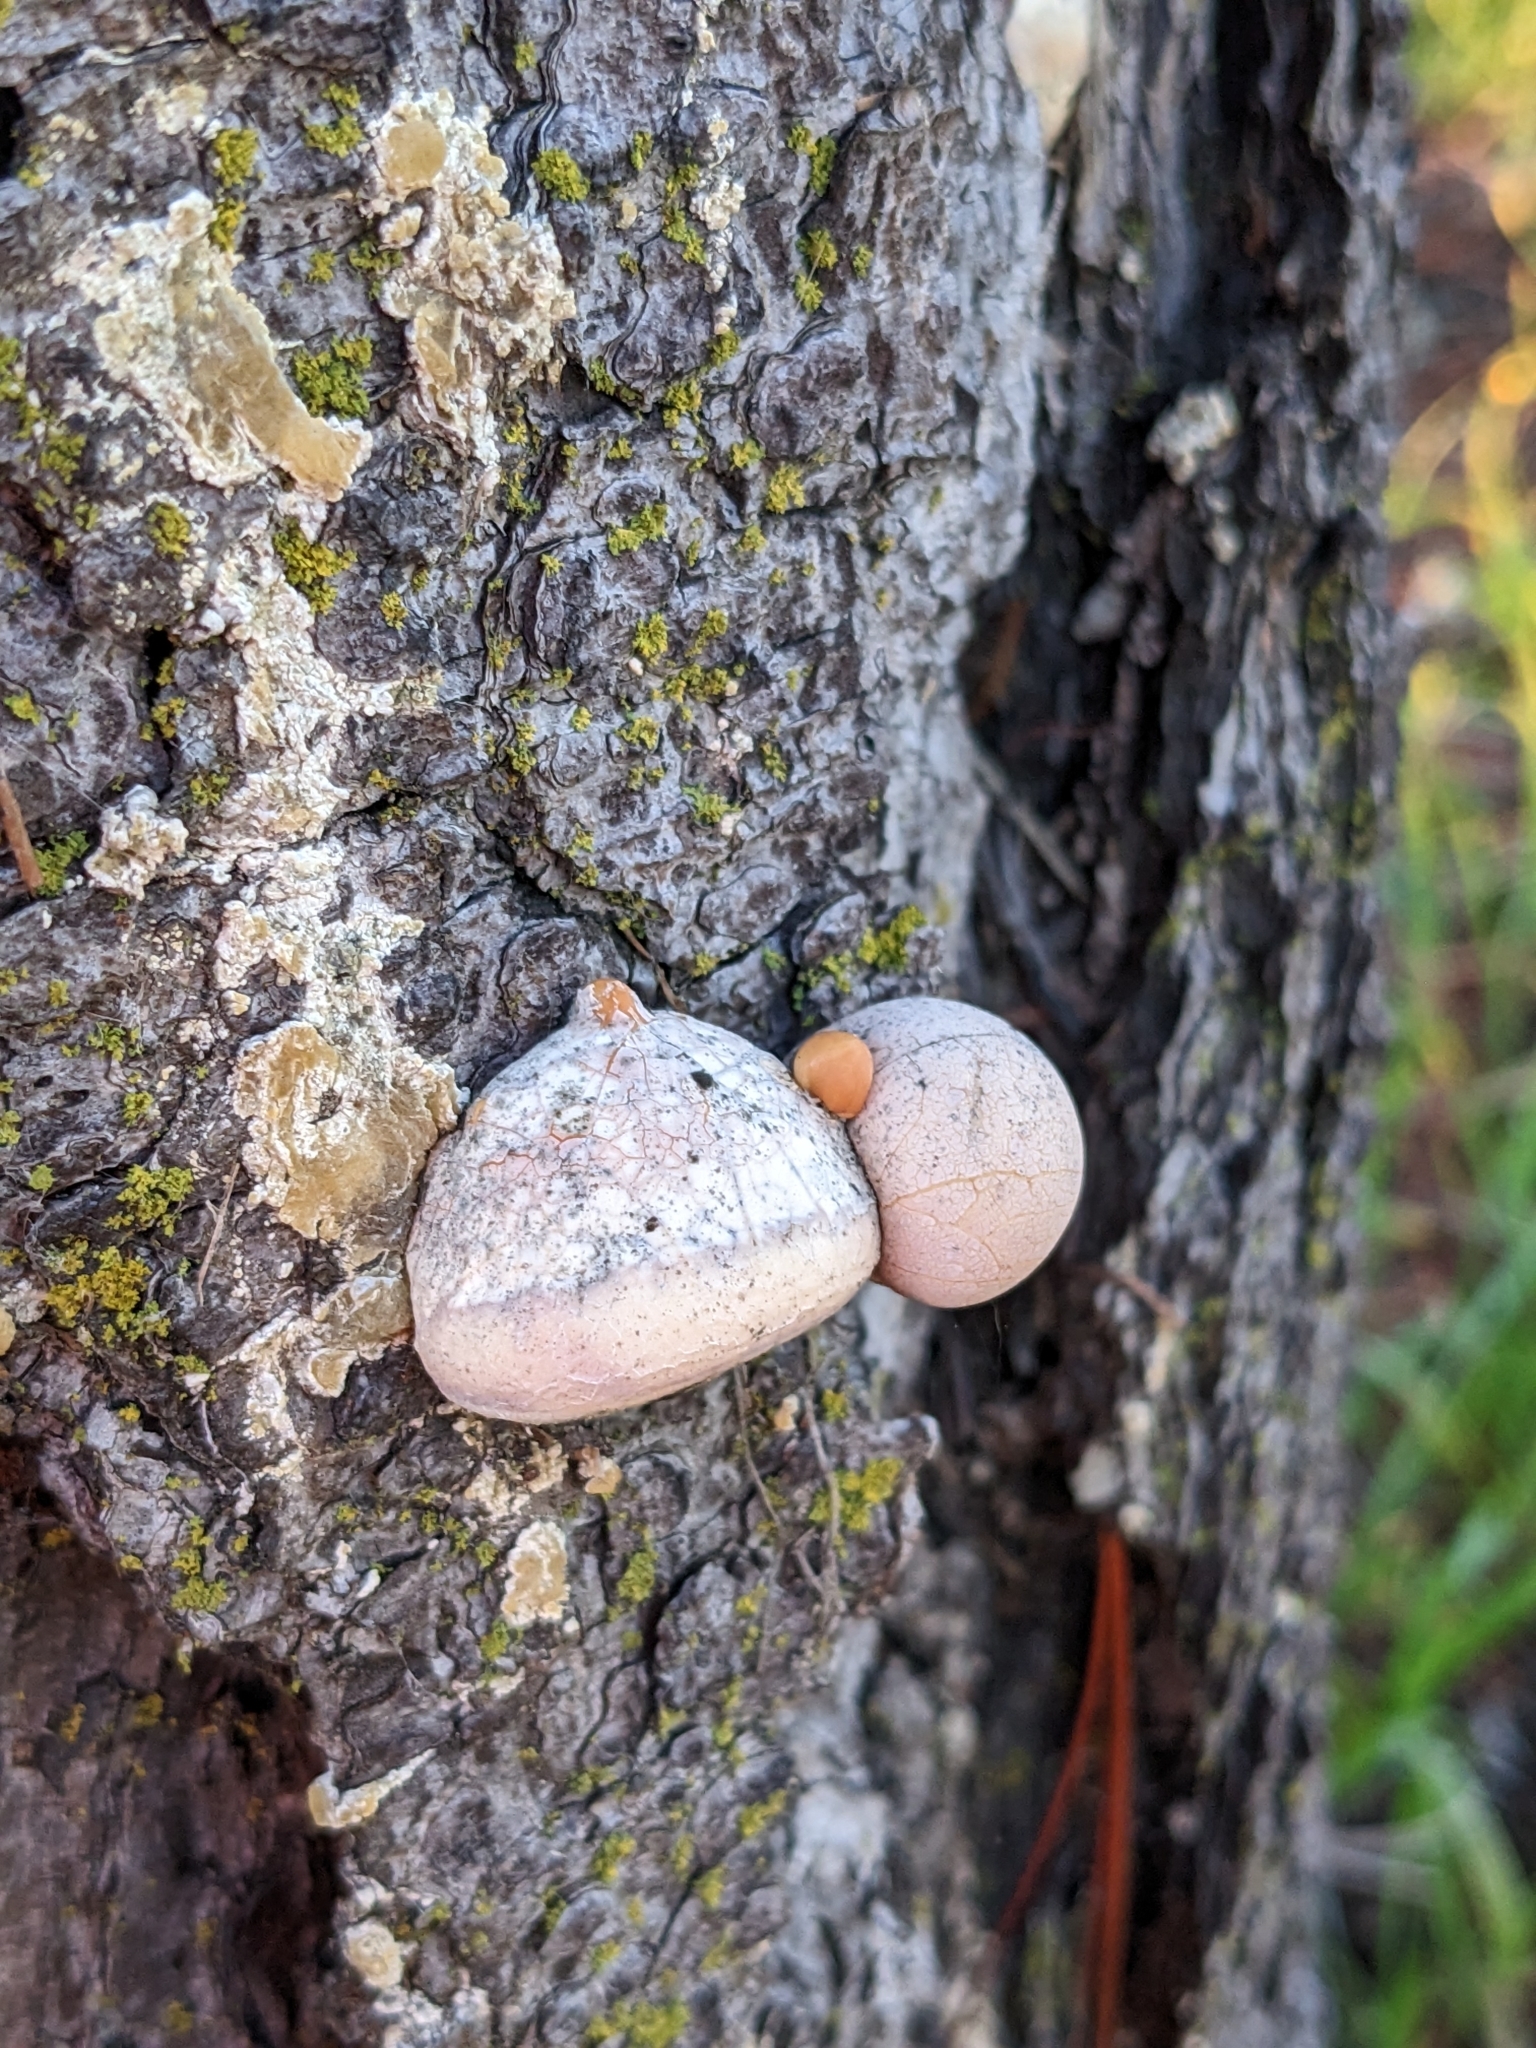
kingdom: Fungi
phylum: Basidiomycota
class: Agaricomycetes
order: Polyporales
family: Polyporaceae
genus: Cryptoporus
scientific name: Cryptoporus volvatus
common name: Veiled polypore
